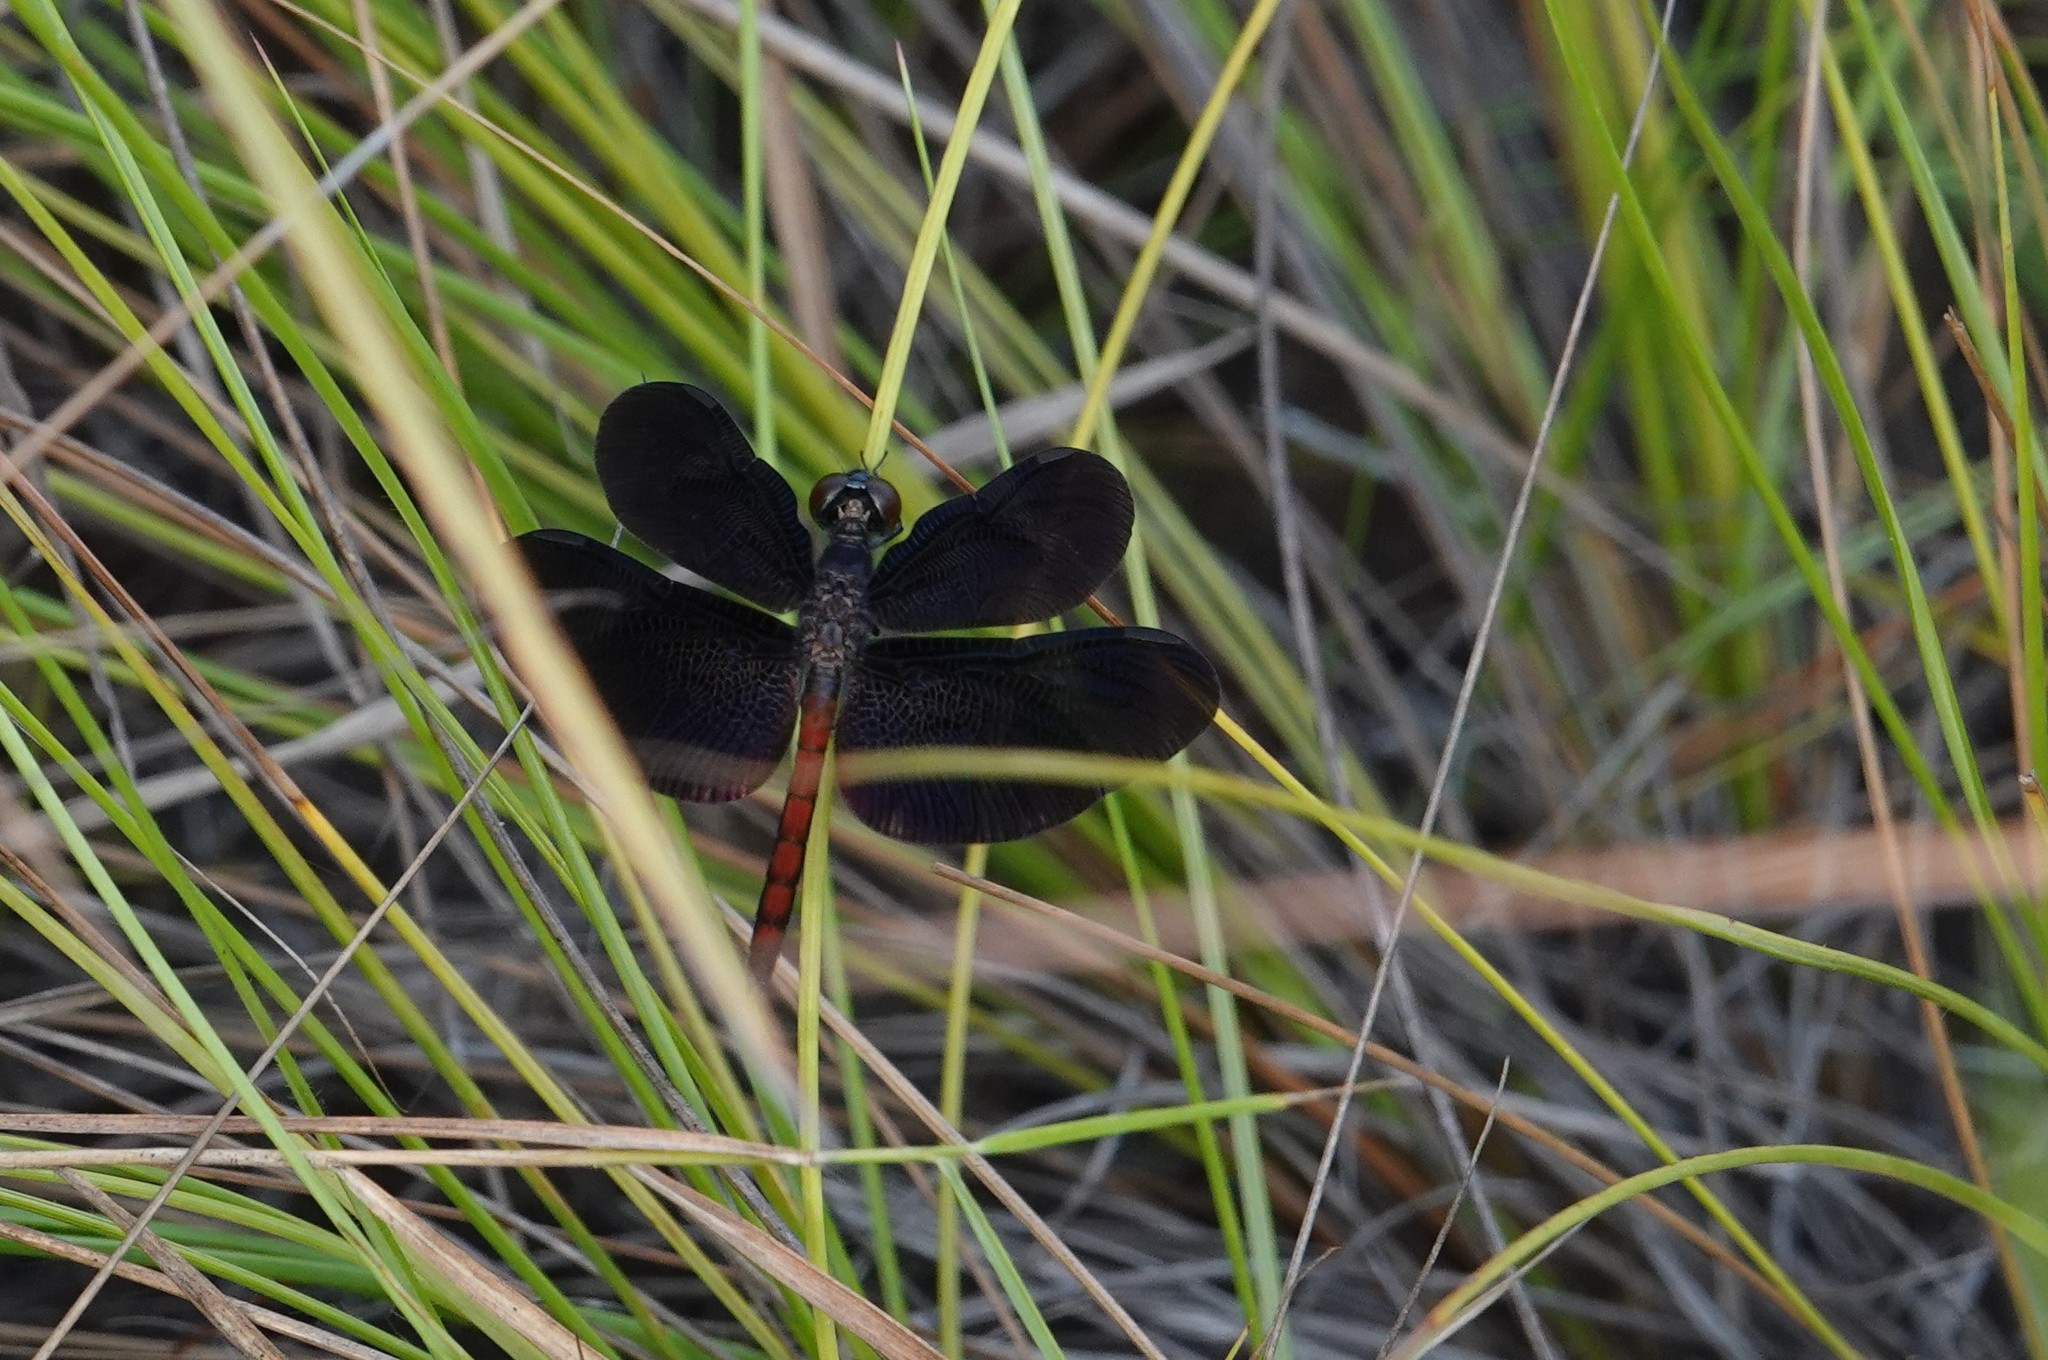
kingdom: Animalia
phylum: Arthropoda
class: Insecta
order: Odonata
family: Libellulidae
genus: Diastatops
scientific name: Diastatops obscura
